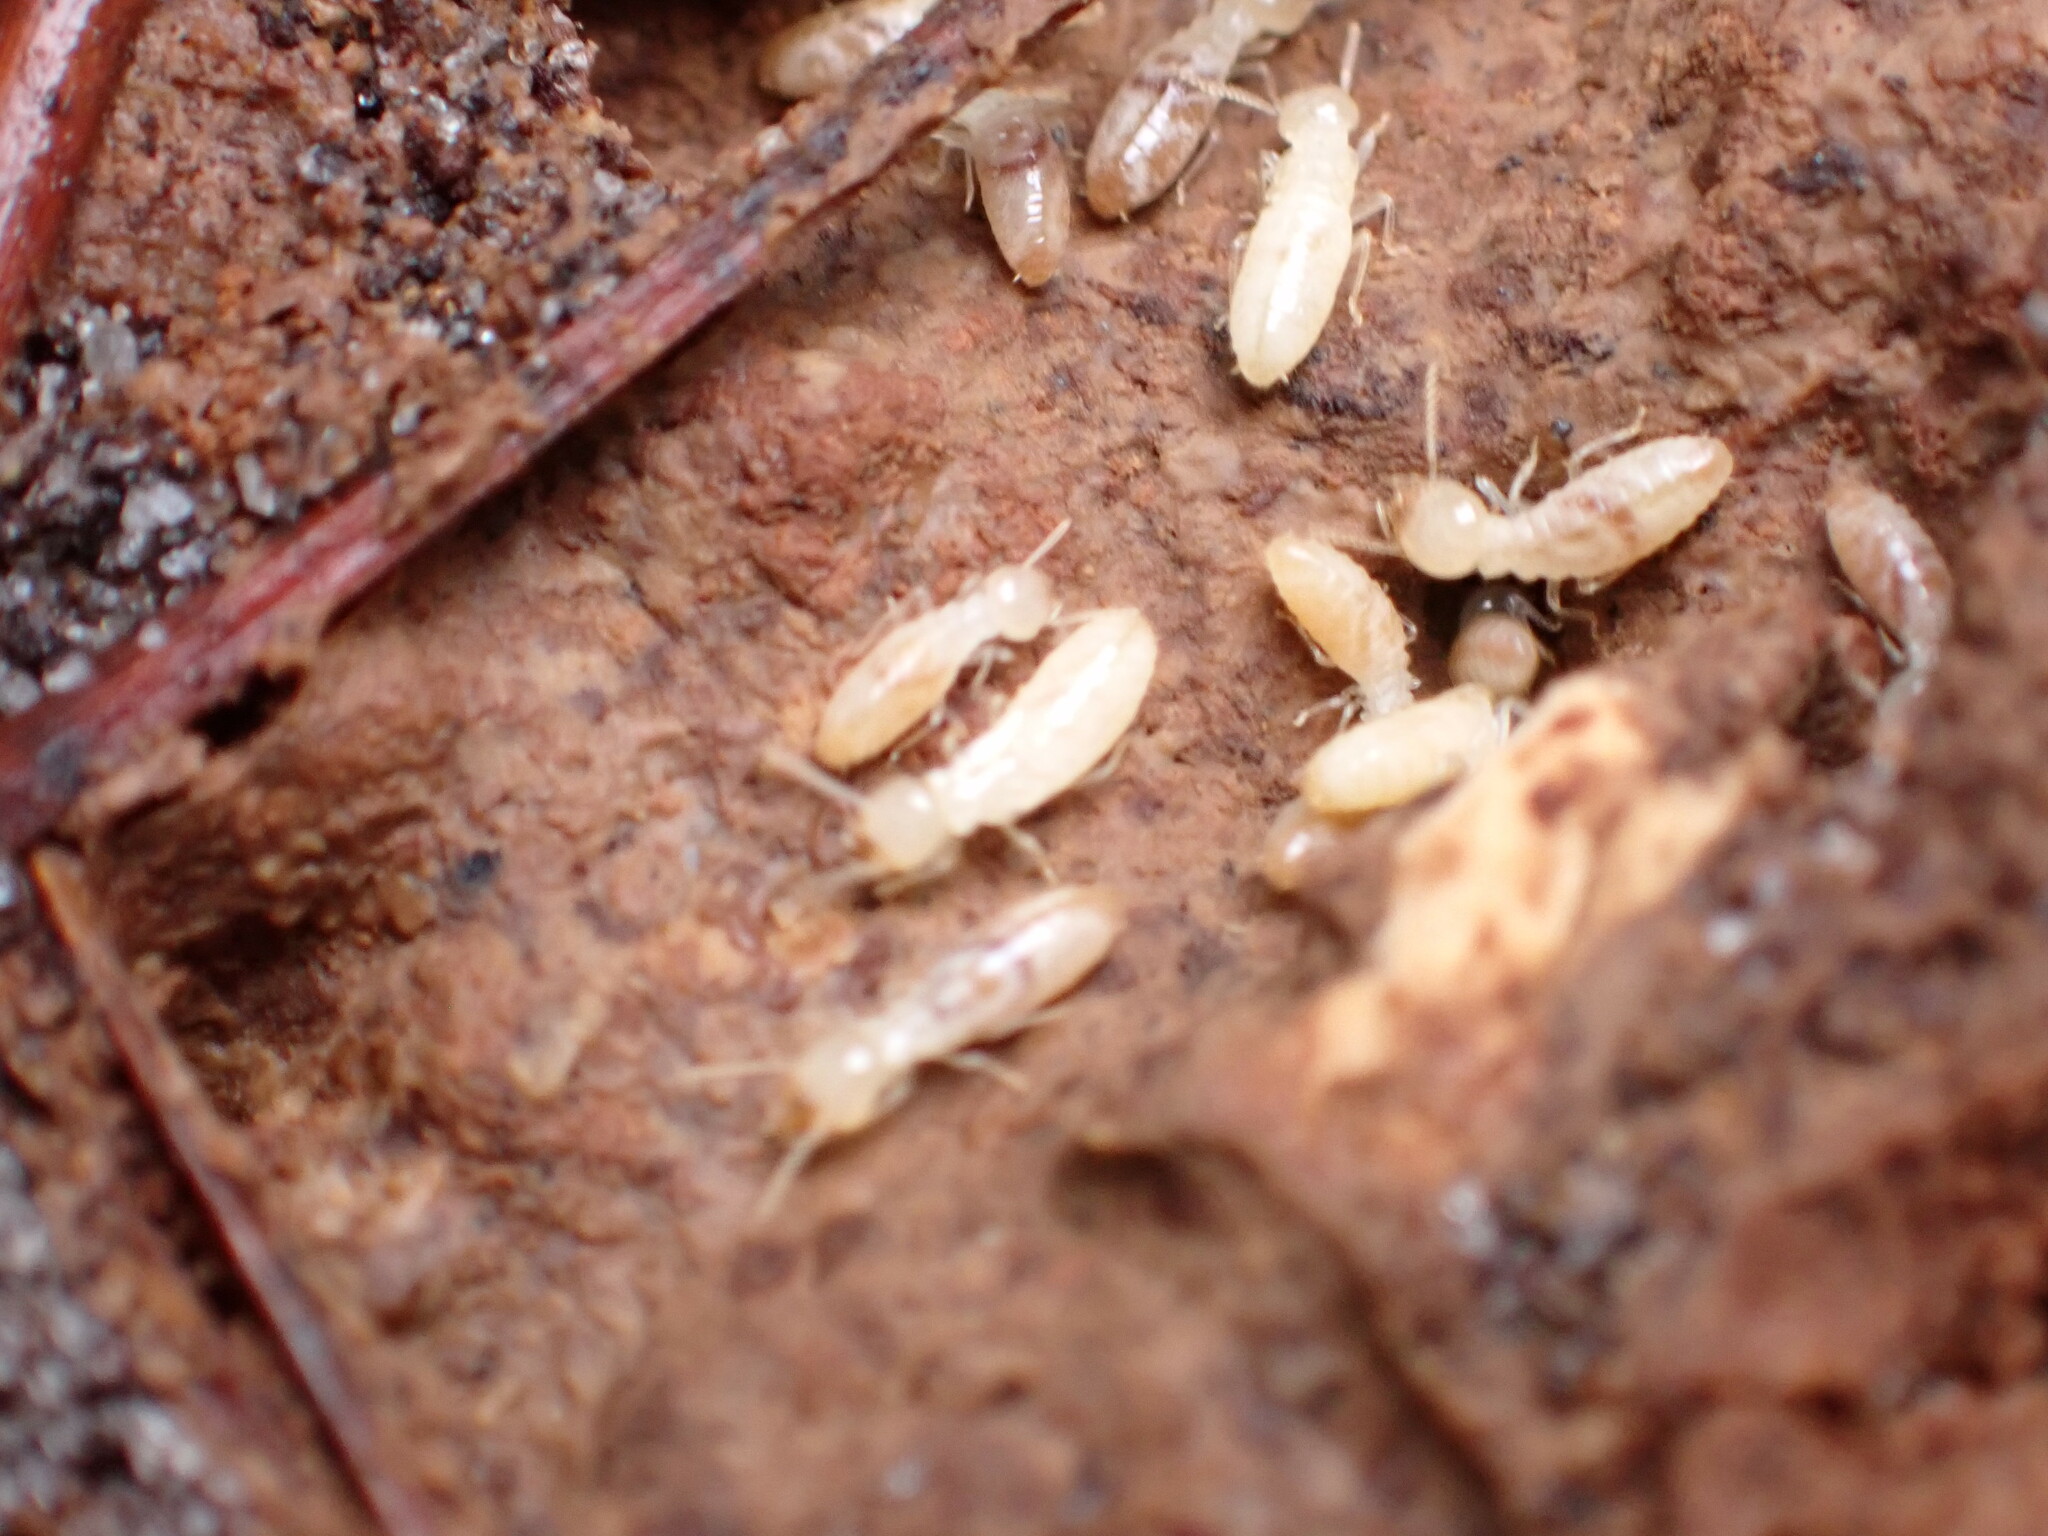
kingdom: Animalia
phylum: Arthropoda
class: Insecta
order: Blattodea
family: Rhinotermitidae
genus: Reticulitermes
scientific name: Reticulitermes flavipes
